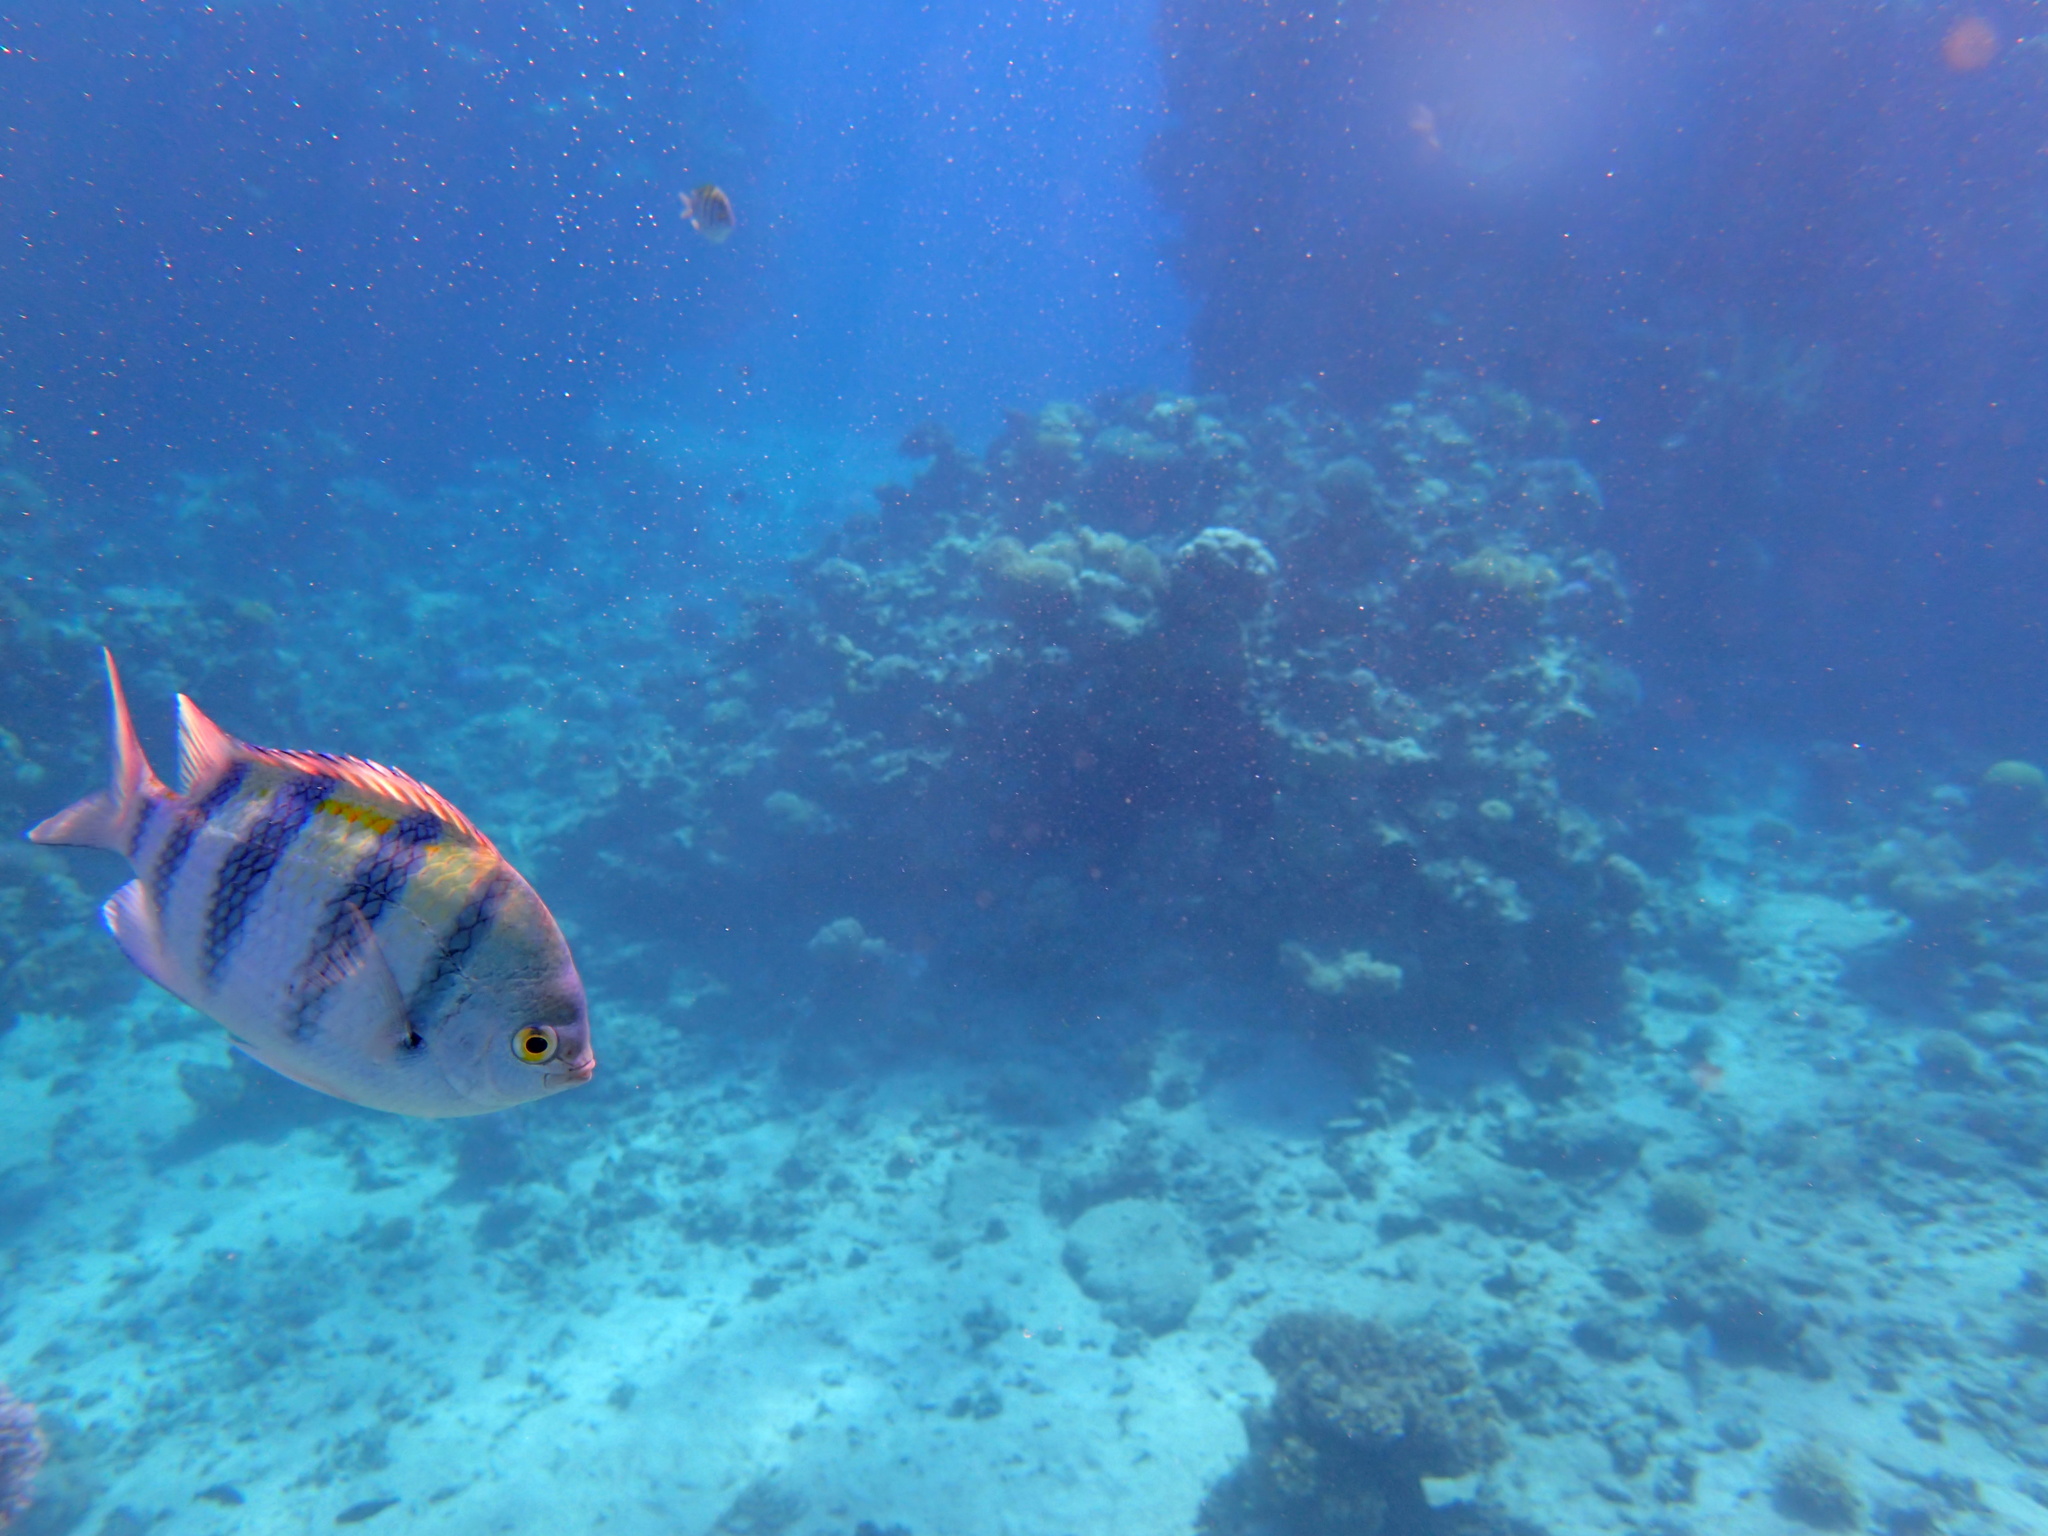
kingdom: Animalia
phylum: Chordata
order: Perciformes
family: Pomacentridae
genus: Abudefduf
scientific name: Abudefduf vaigiensis
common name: Indo-pacific sergeant
